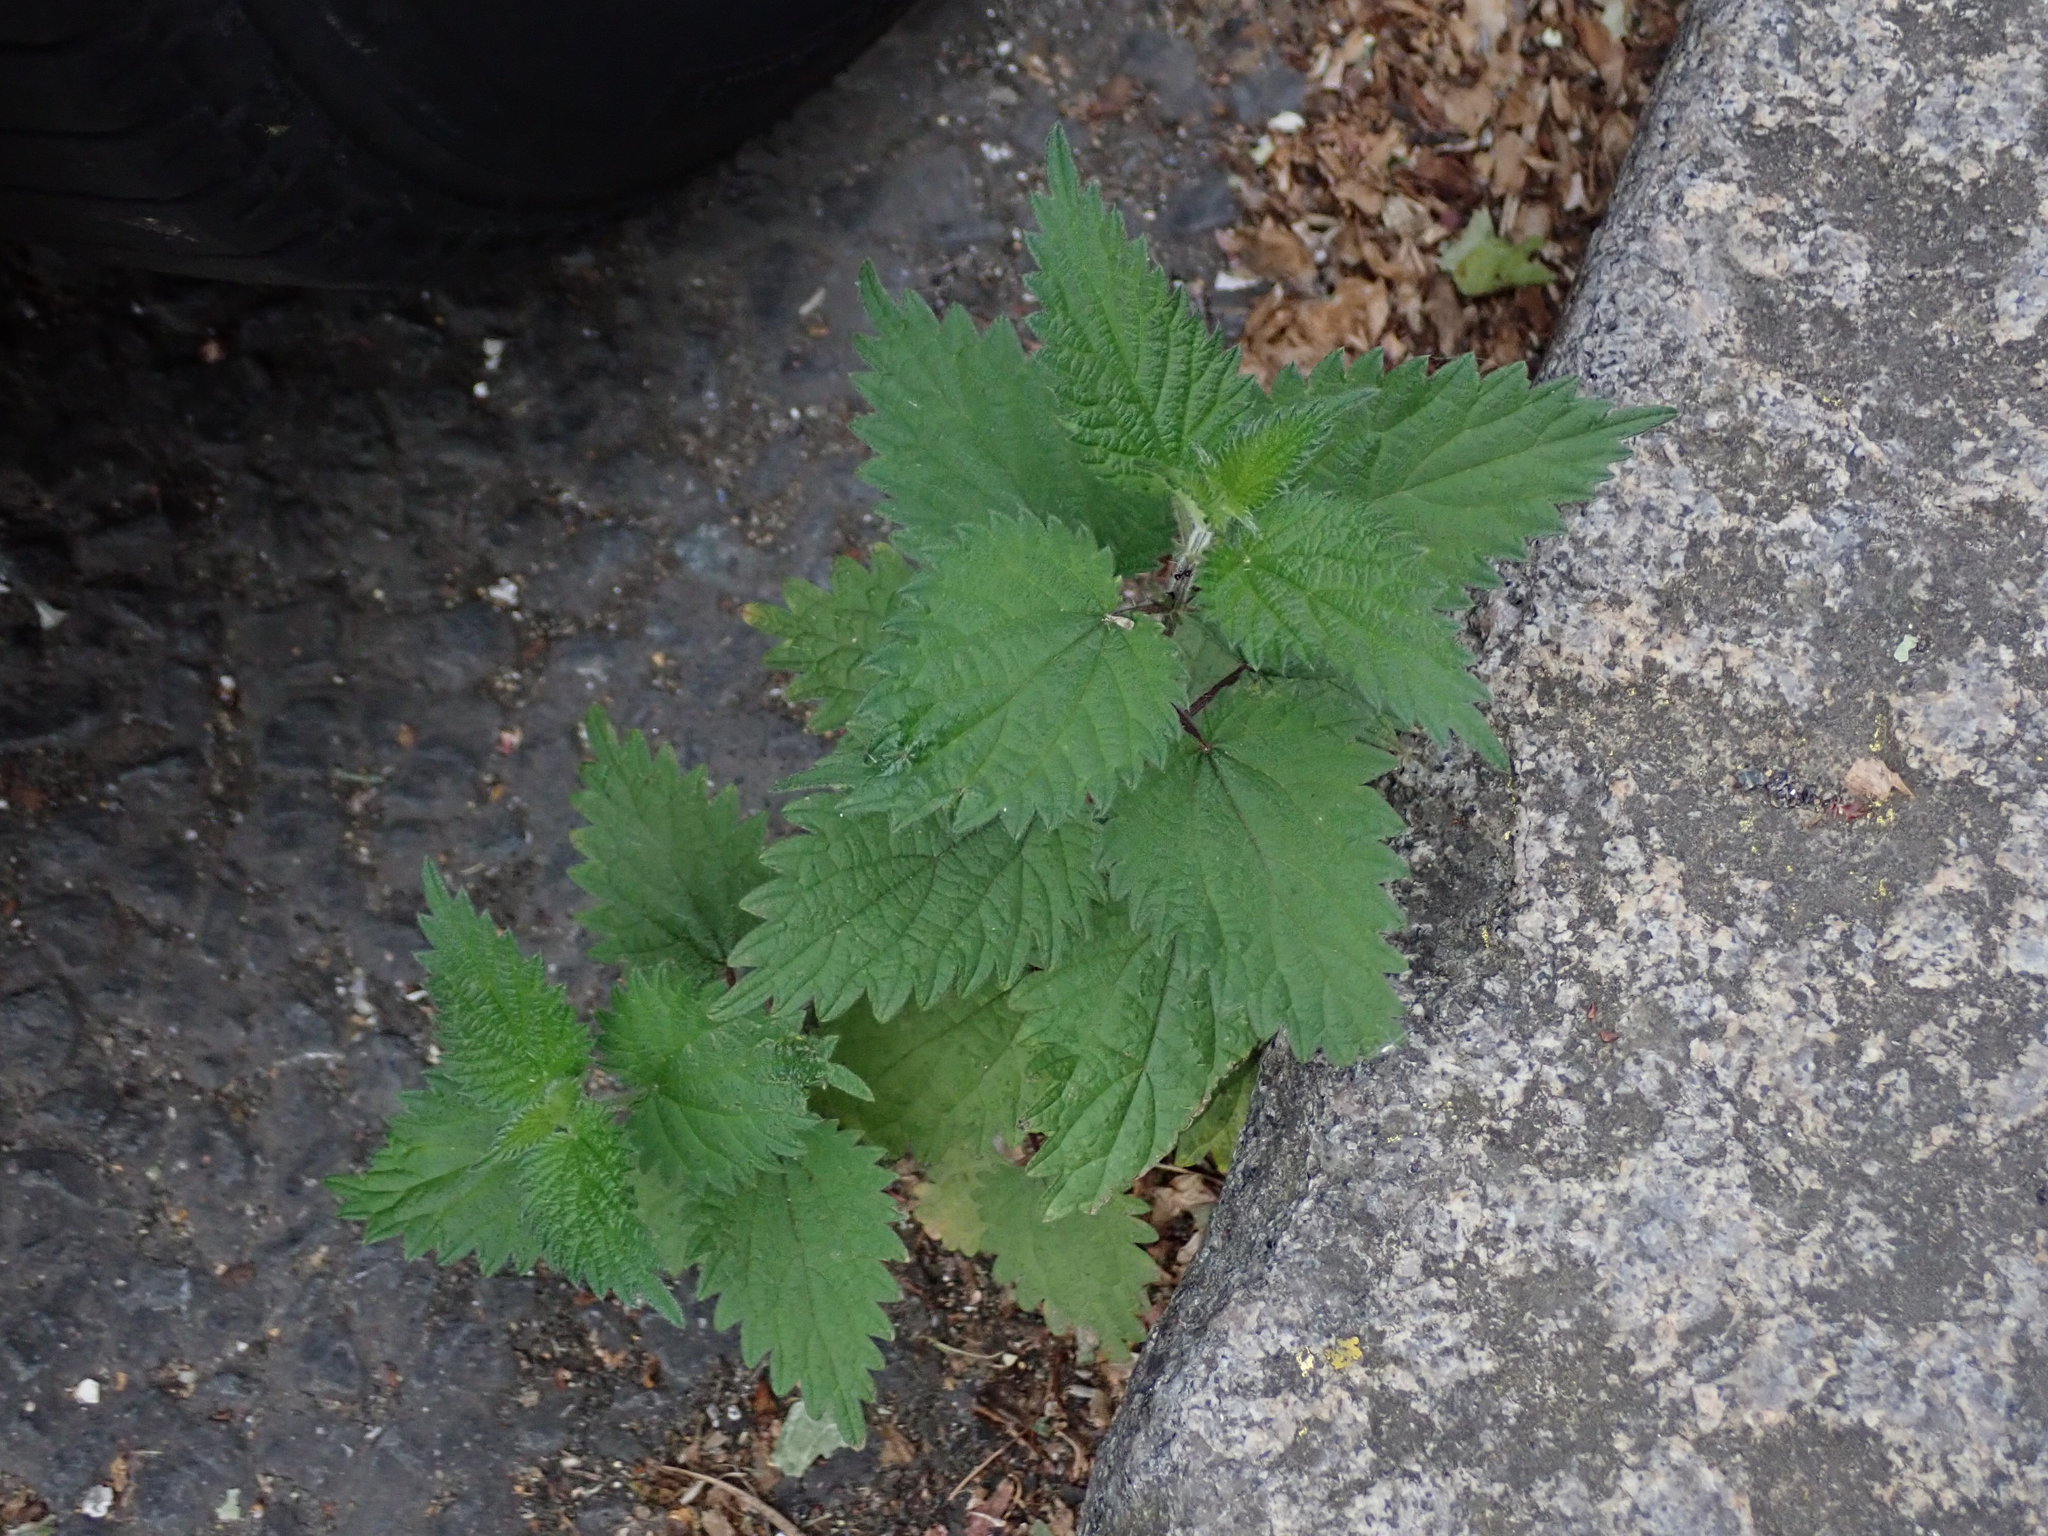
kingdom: Plantae
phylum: Tracheophyta
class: Magnoliopsida
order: Rosales
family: Urticaceae
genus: Urtica
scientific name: Urtica dioica
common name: Common nettle
